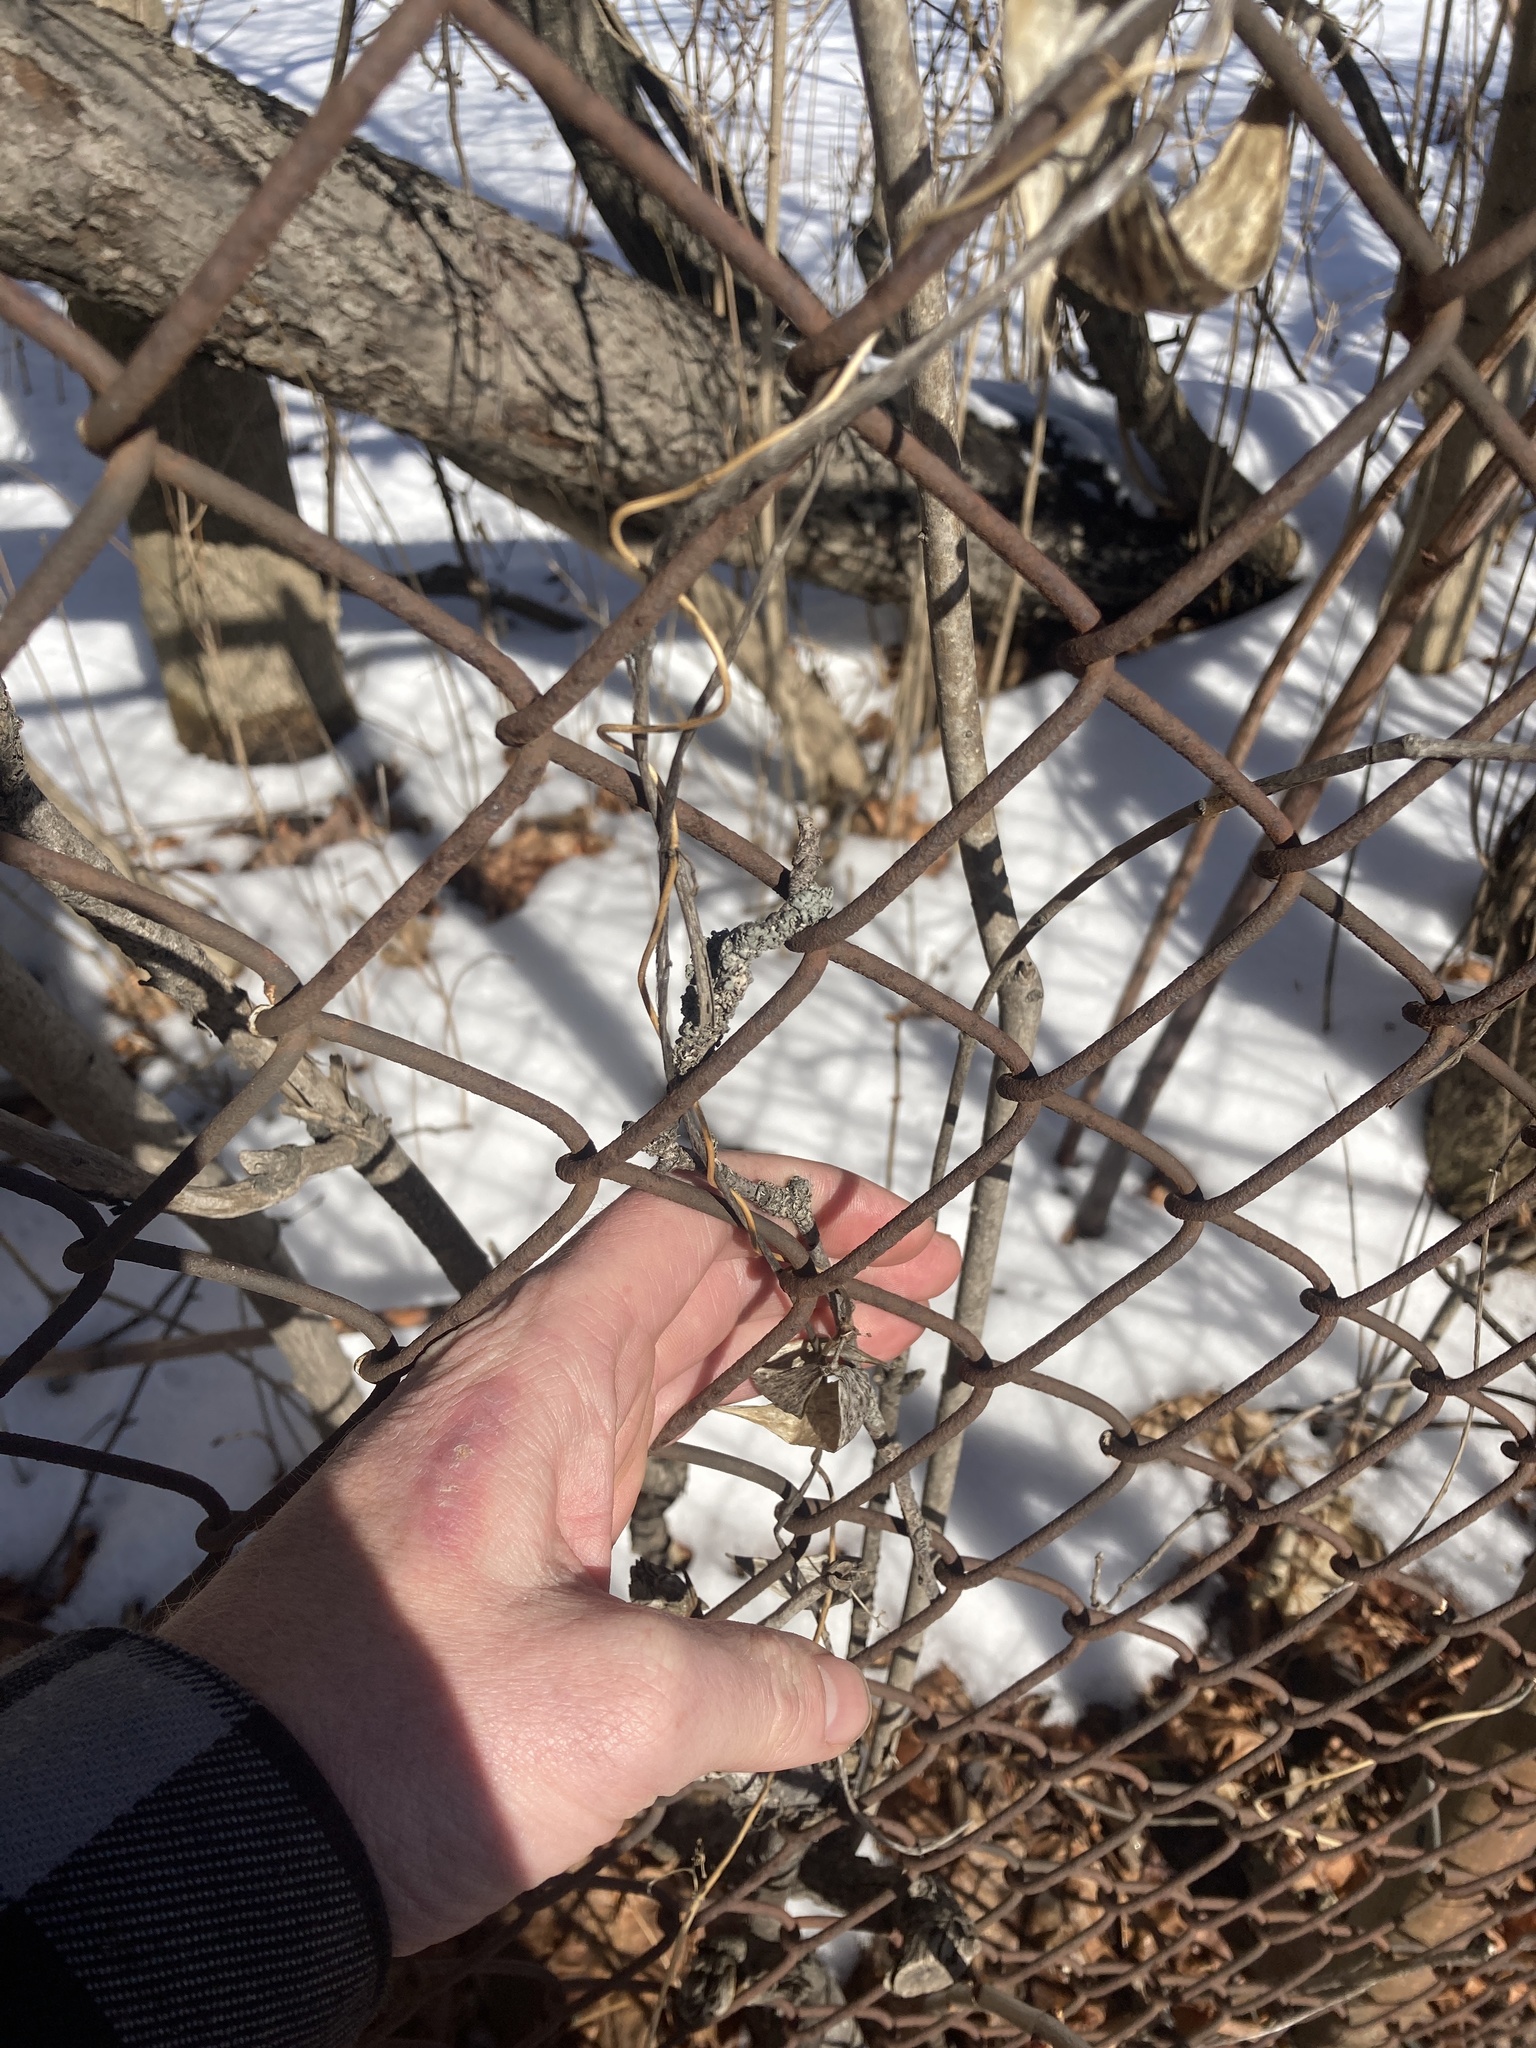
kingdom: Plantae
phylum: Tracheophyta
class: Magnoliopsida
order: Gentianales
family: Apocynaceae
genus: Vincetoxicum
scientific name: Vincetoxicum nigrum
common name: Black swallow-wort
